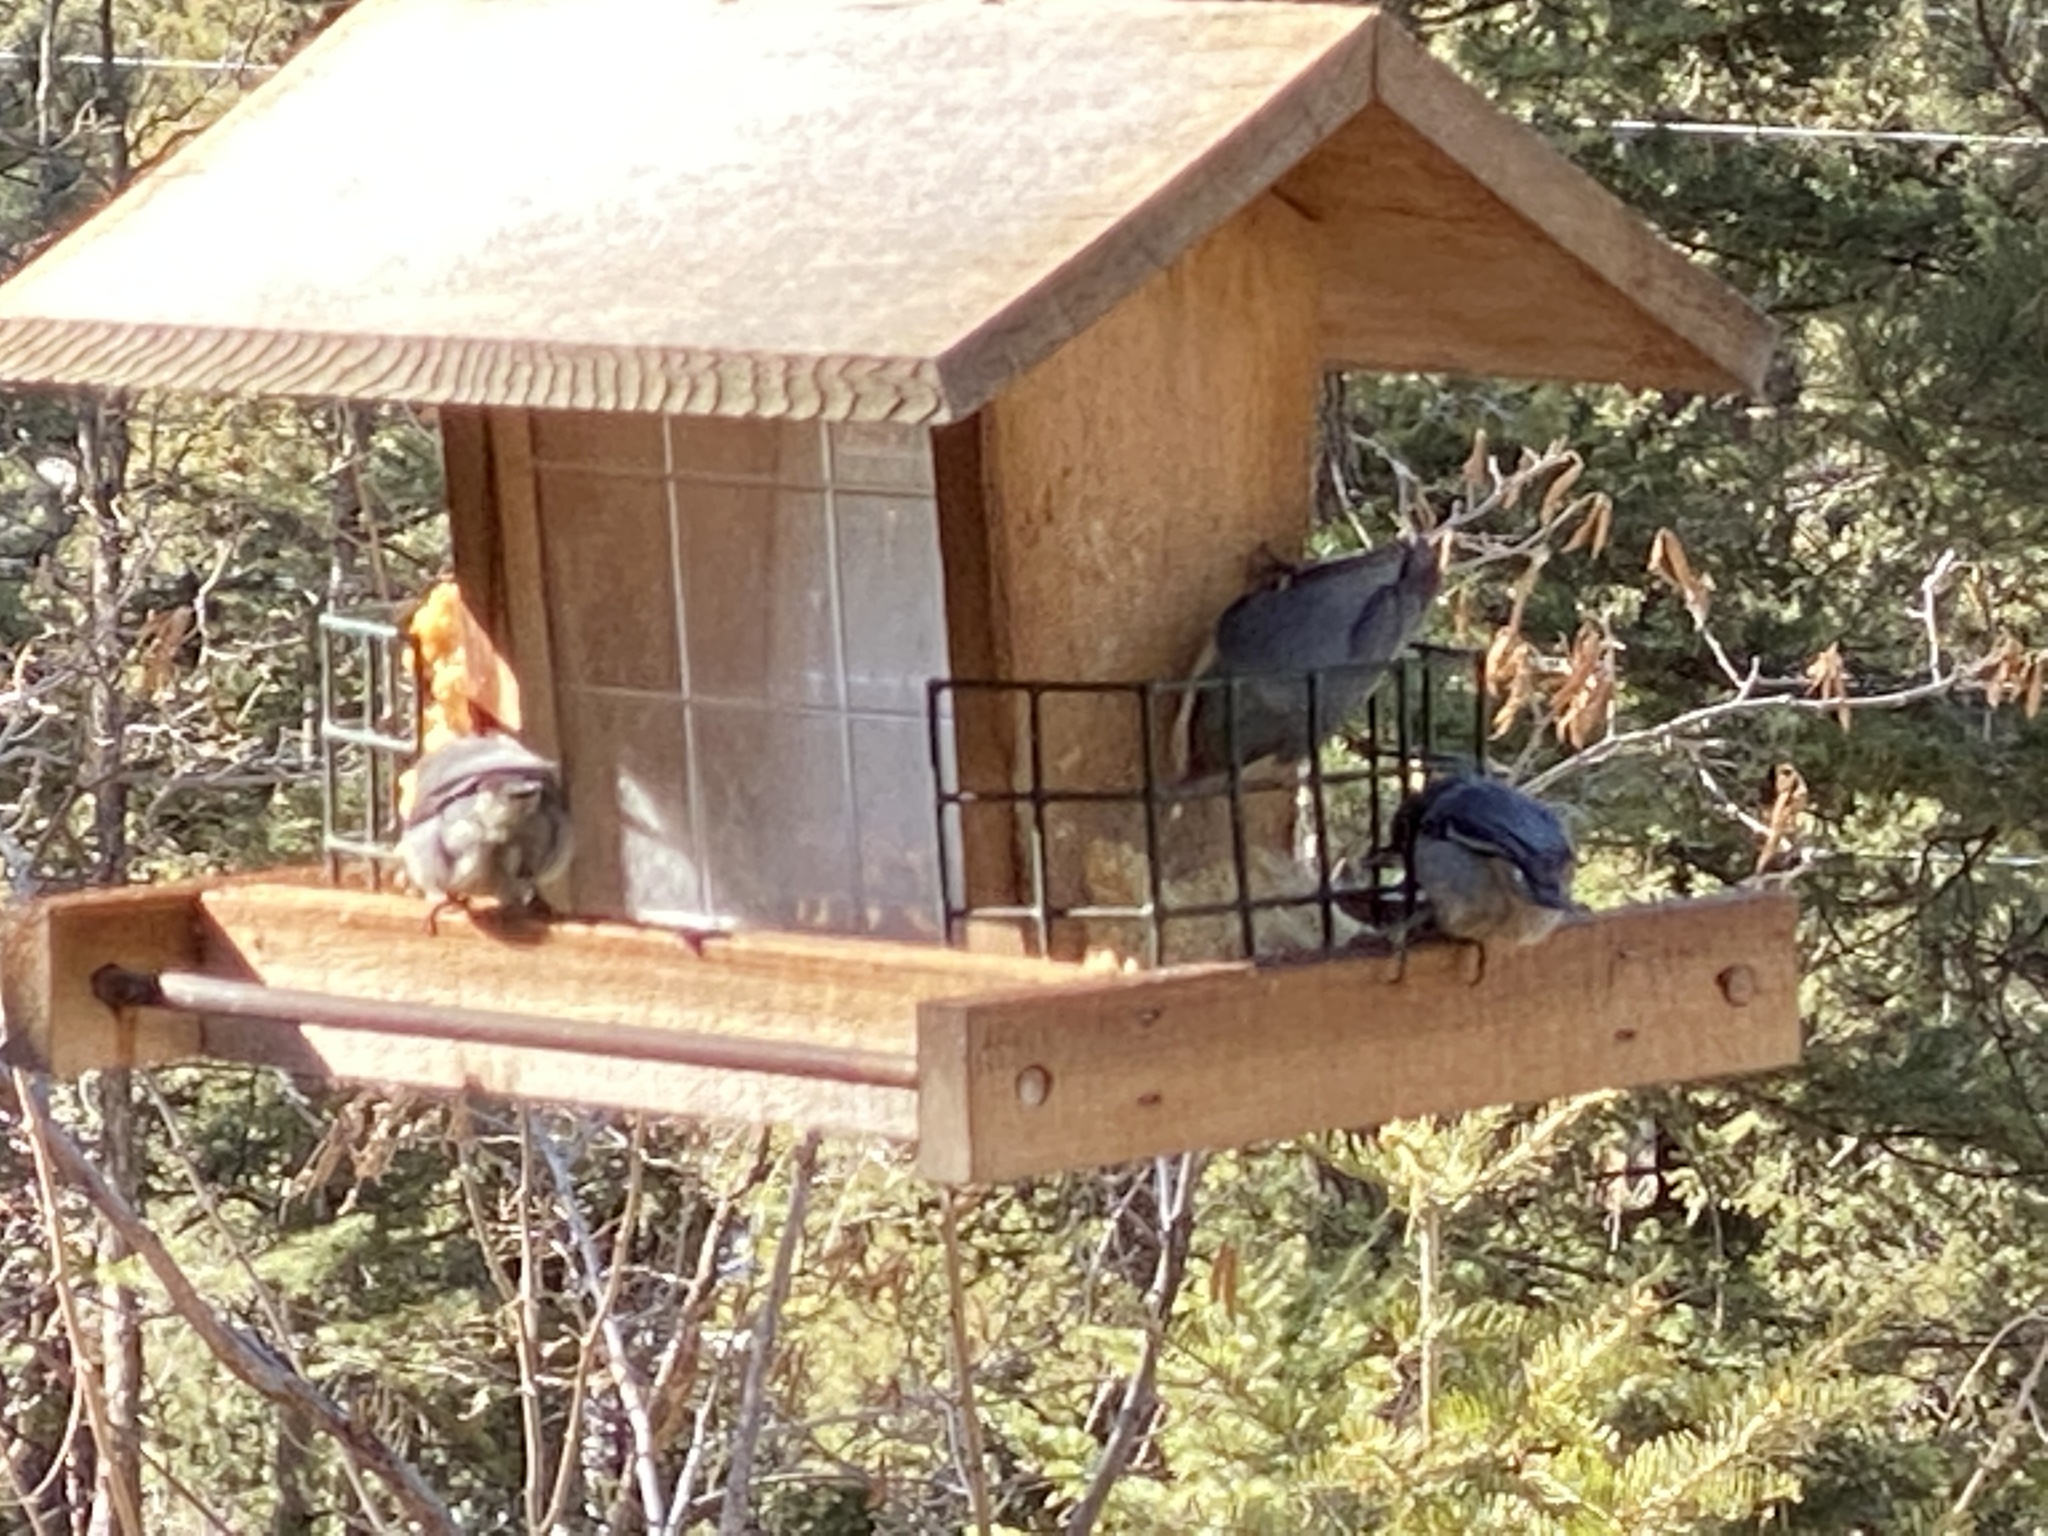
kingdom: Animalia
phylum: Chordata
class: Aves
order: Passeriformes
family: Sittidae
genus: Sitta
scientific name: Sitta pygmaea
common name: Pygmy nuthatch
